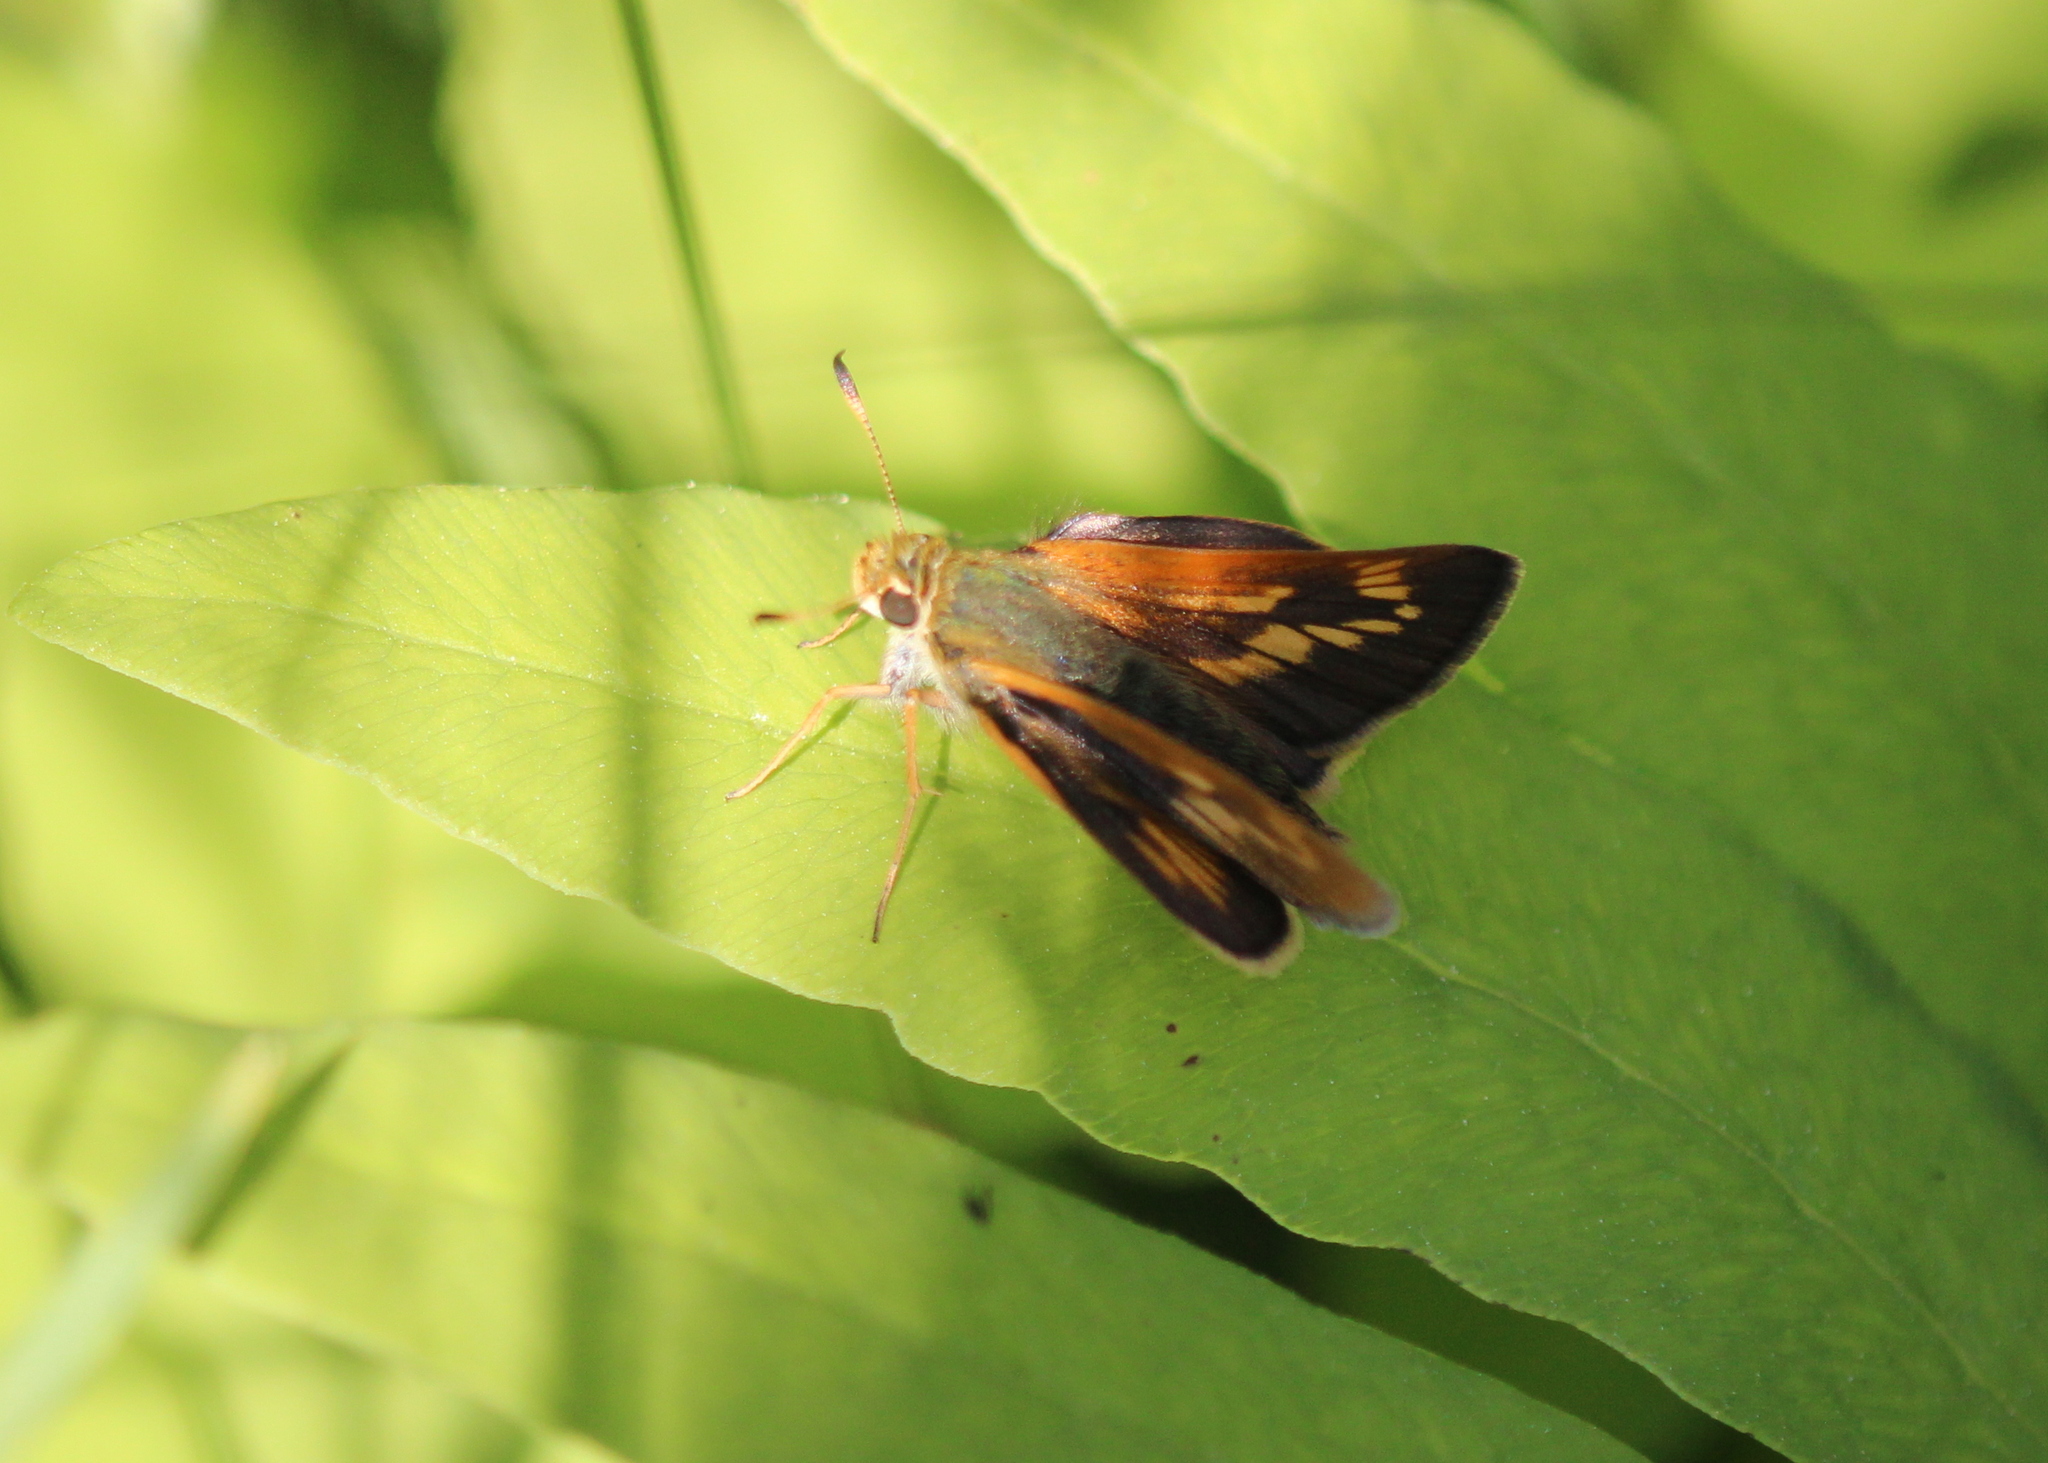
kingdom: Animalia
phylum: Arthropoda
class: Insecta
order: Lepidoptera
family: Hesperiidae
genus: Polites
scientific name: Polites mystic
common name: Long dash
